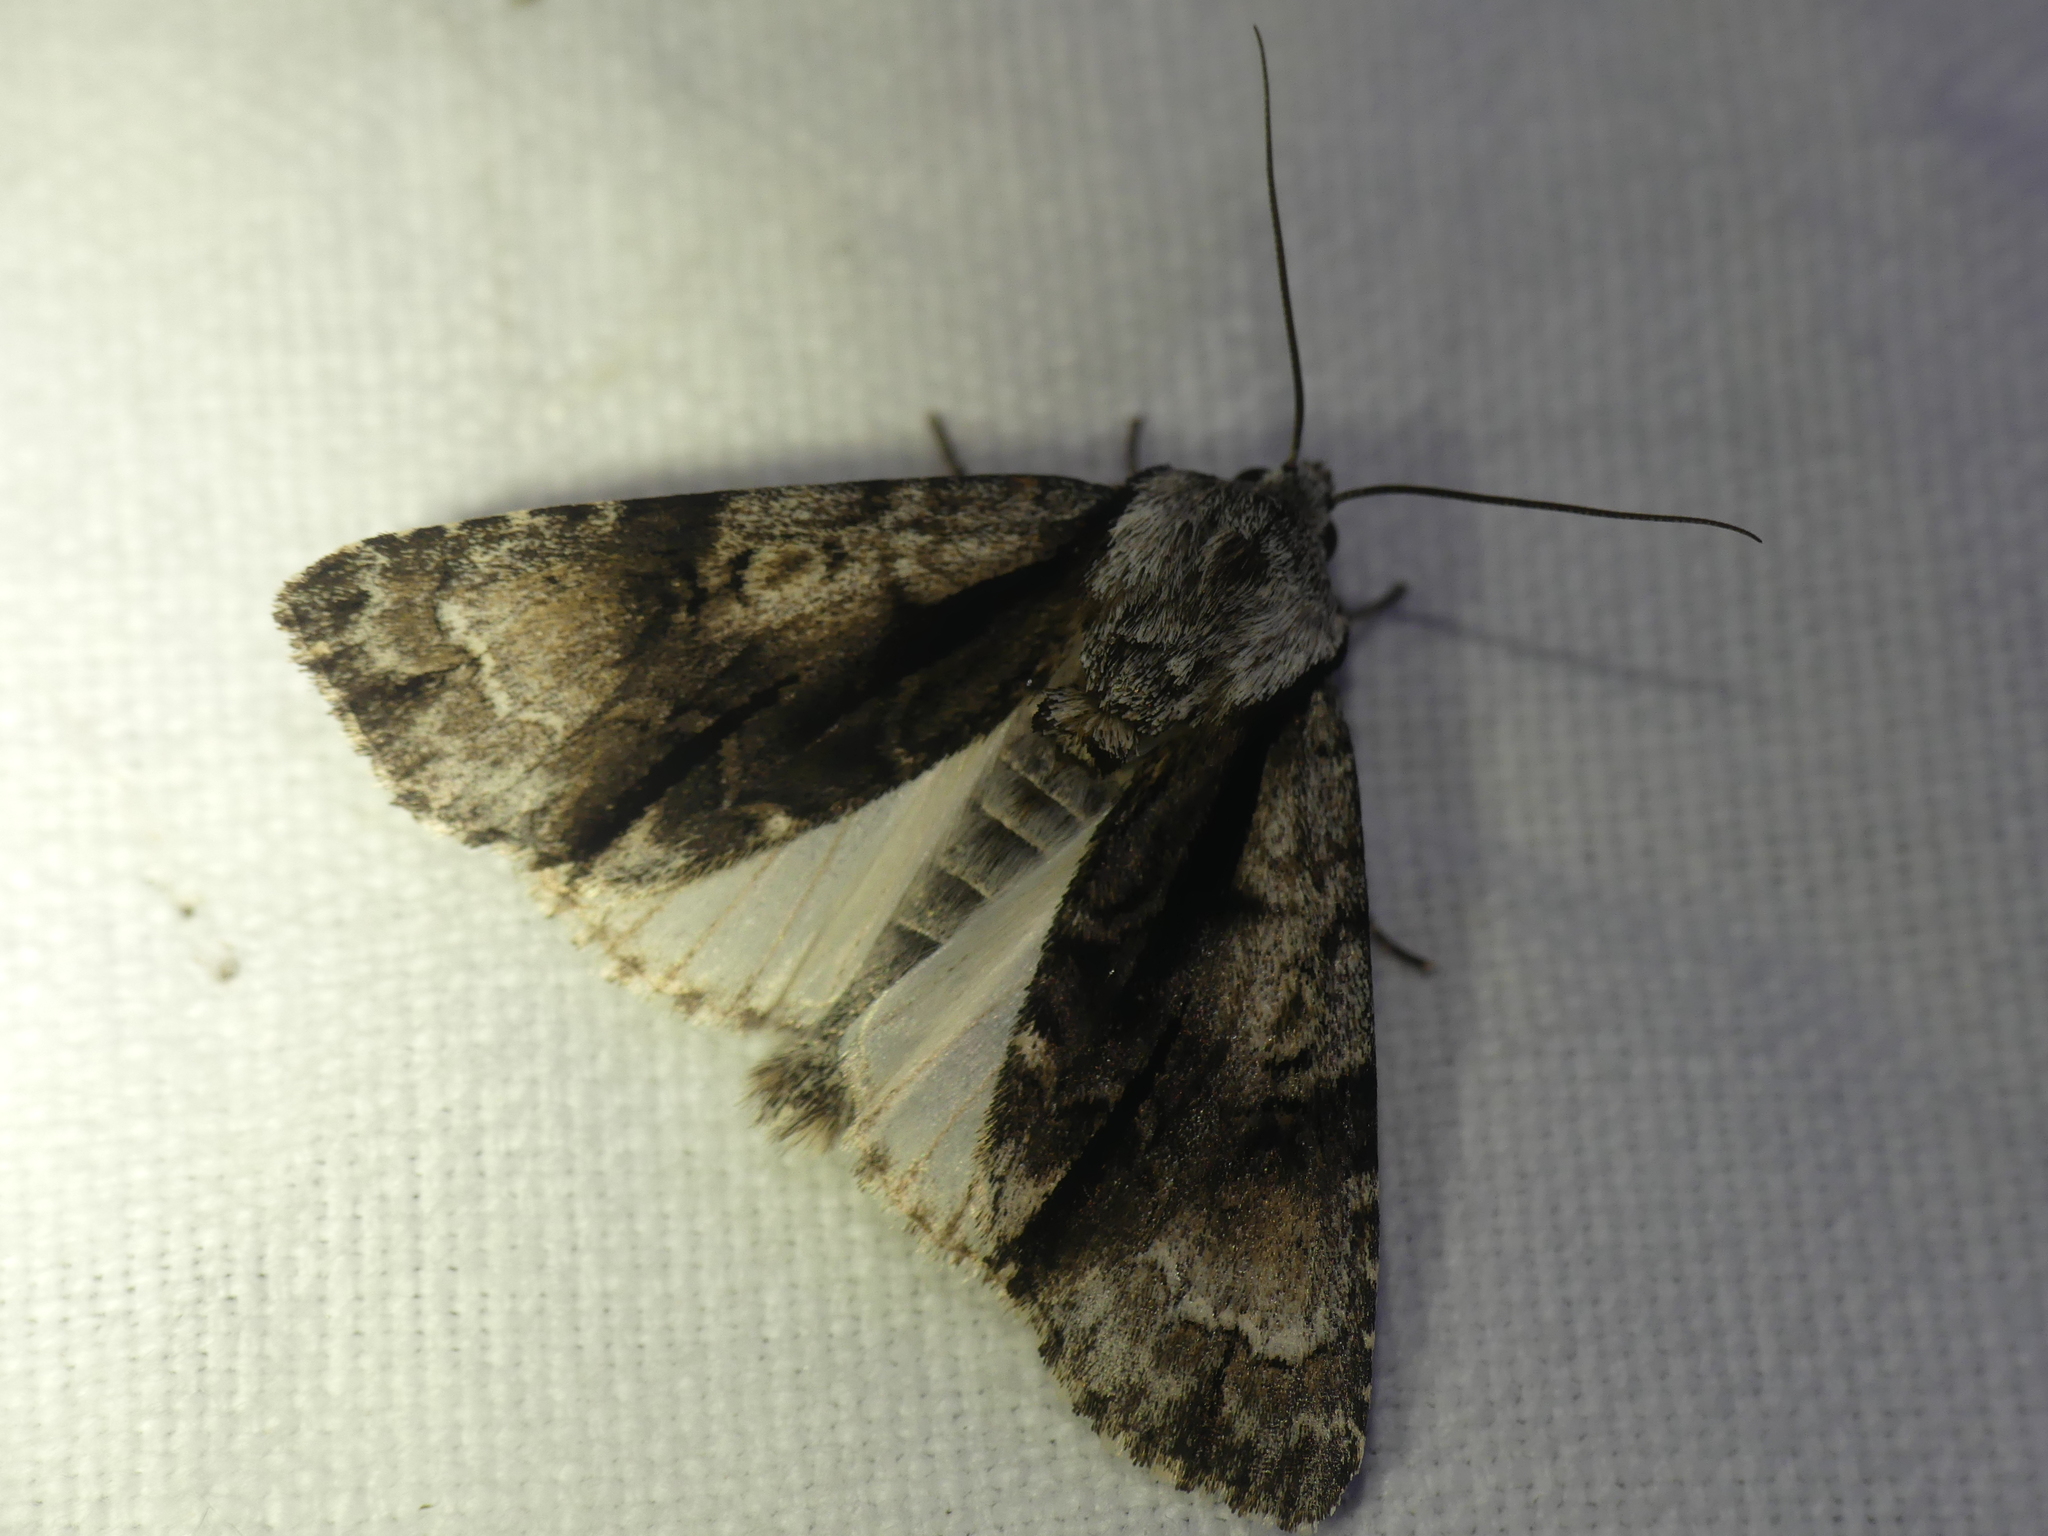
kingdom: Animalia
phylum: Arthropoda
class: Insecta
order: Lepidoptera
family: Noctuidae
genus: Acronicta
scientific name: Acronicta alni
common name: Alder moth
